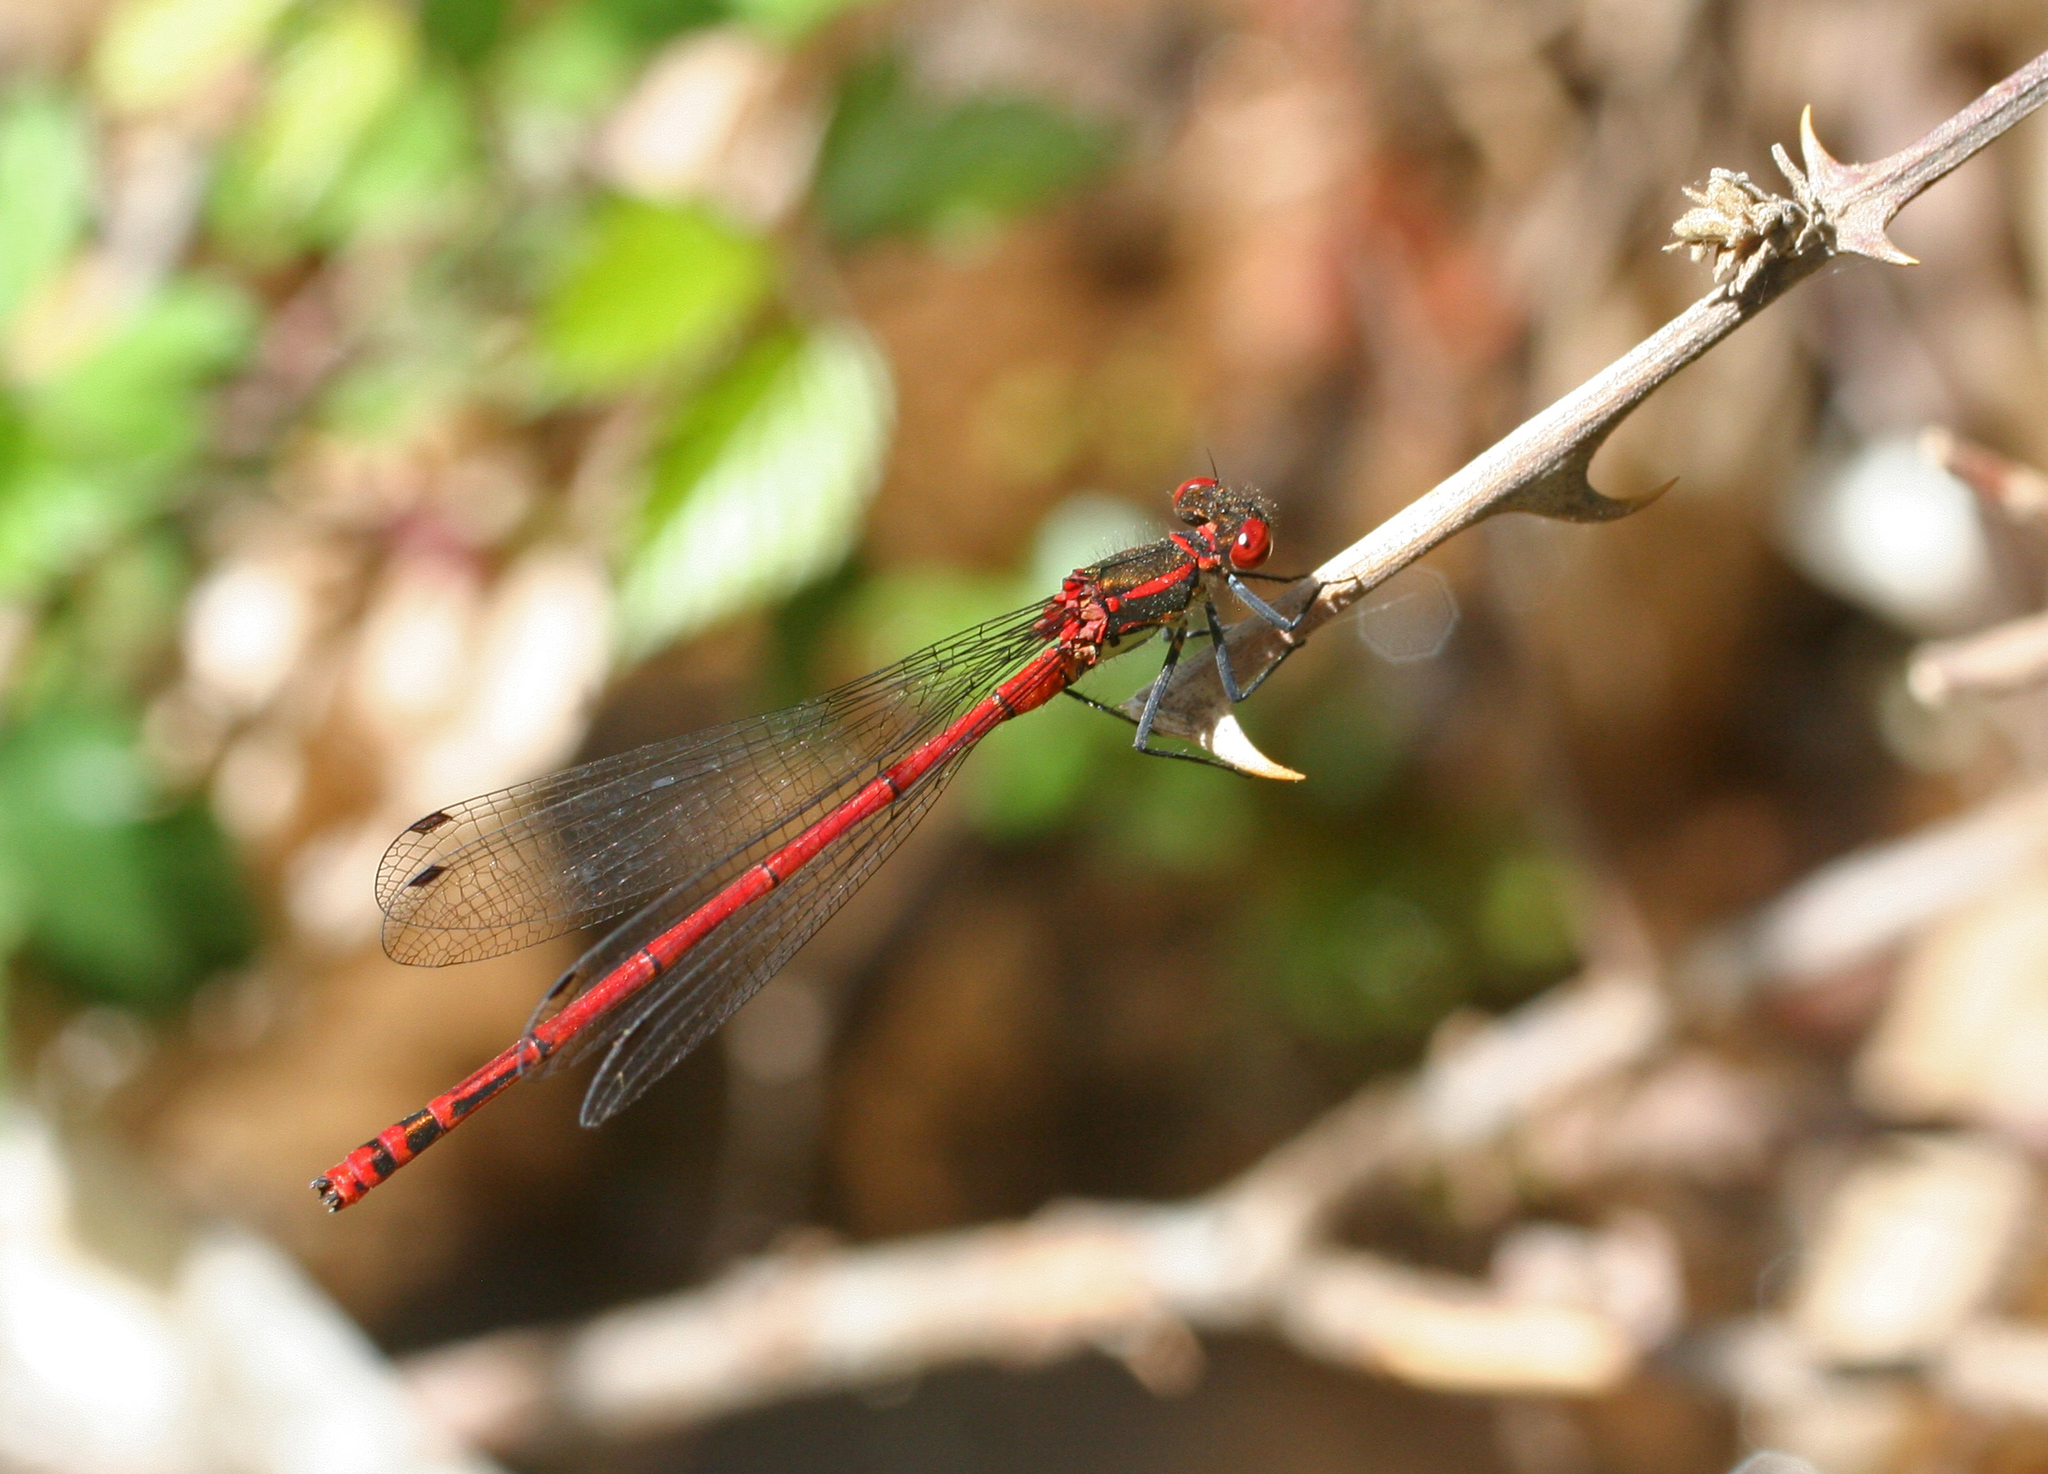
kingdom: Animalia
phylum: Arthropoda
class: Insecta
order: Odonata
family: Coenagrionidae
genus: Pyrrhosoma
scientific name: Pyrrhosoma nymphula
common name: Large red damsel
